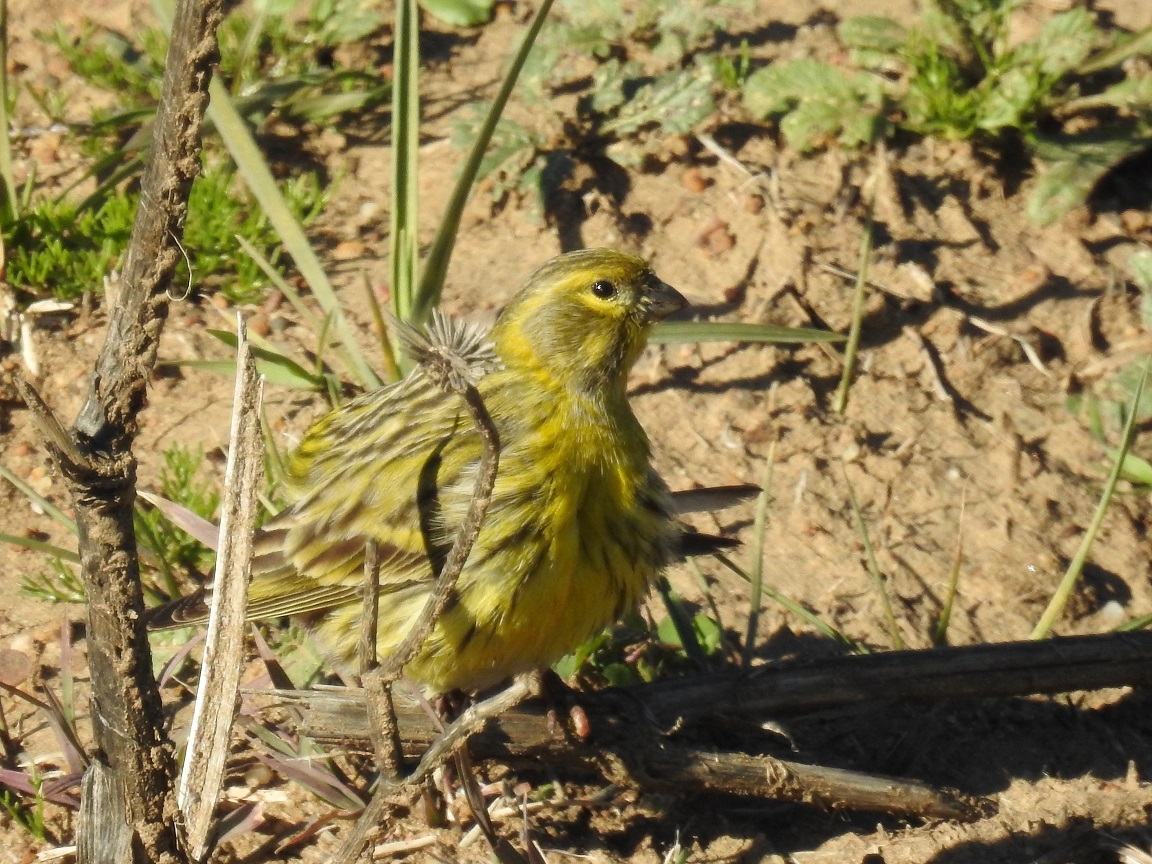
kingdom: Animalia
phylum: Chordata
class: Aves
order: Passeriformes
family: Fringillidae
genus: Serinus
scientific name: Serinus serinus
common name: European serin
